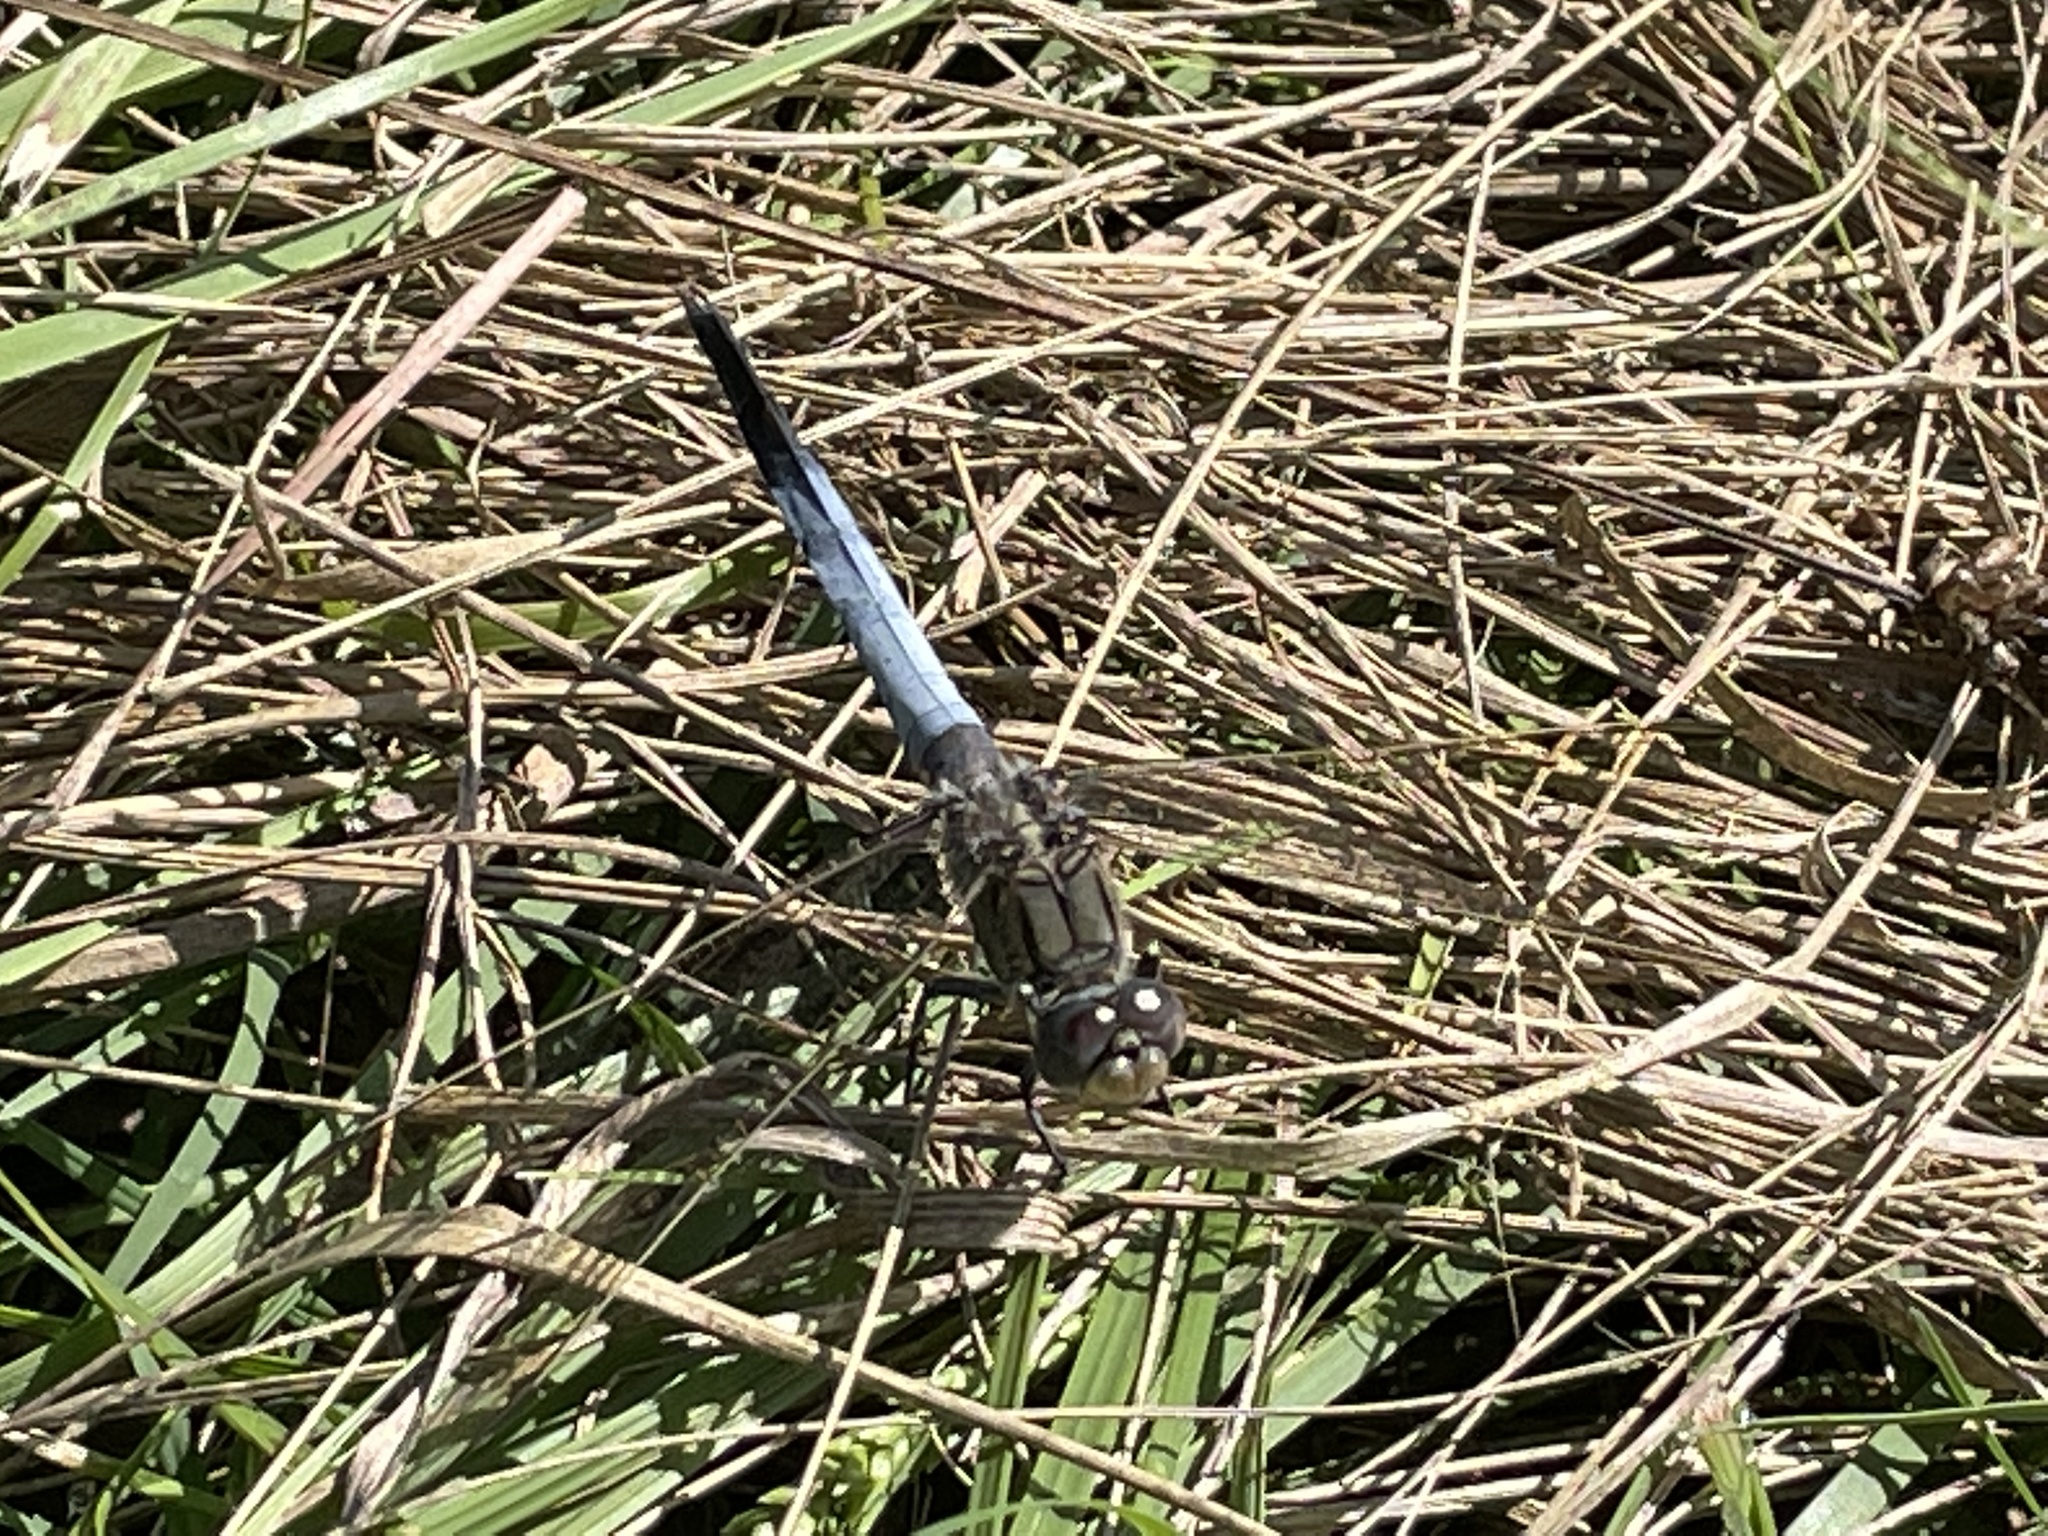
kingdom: Animalia
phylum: Arthropoda
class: Insecta
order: Odonata
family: Libellulidae
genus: Orthetrum
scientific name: Orthetrum caledonicum
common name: Blue skimmer
